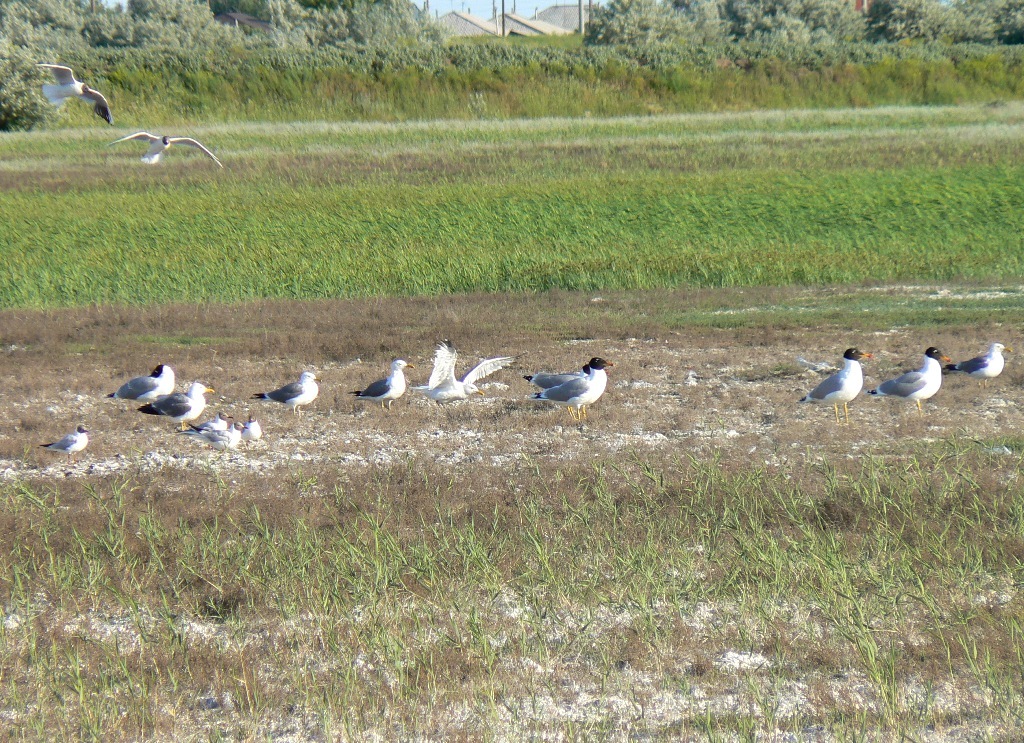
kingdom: Animalia
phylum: Chordata
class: Aves
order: Charadriiformes
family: Laridae
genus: Ichthyaetus
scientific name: Ichthyaetus ichthyaetus
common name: Pallas's gull
